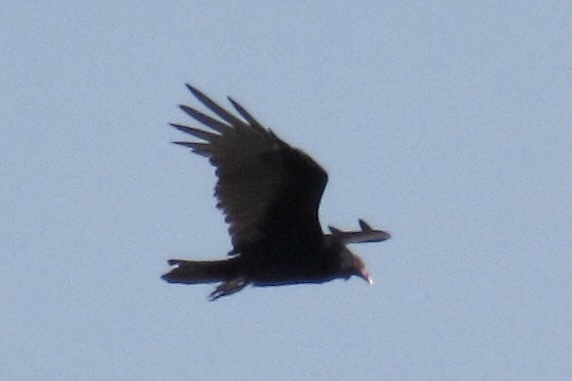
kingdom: Animalia
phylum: Chordata
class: Aves
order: Accipitriformes
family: Cathartidae
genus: Cathartes
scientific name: Cathartes aura
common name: Turkey vulture
